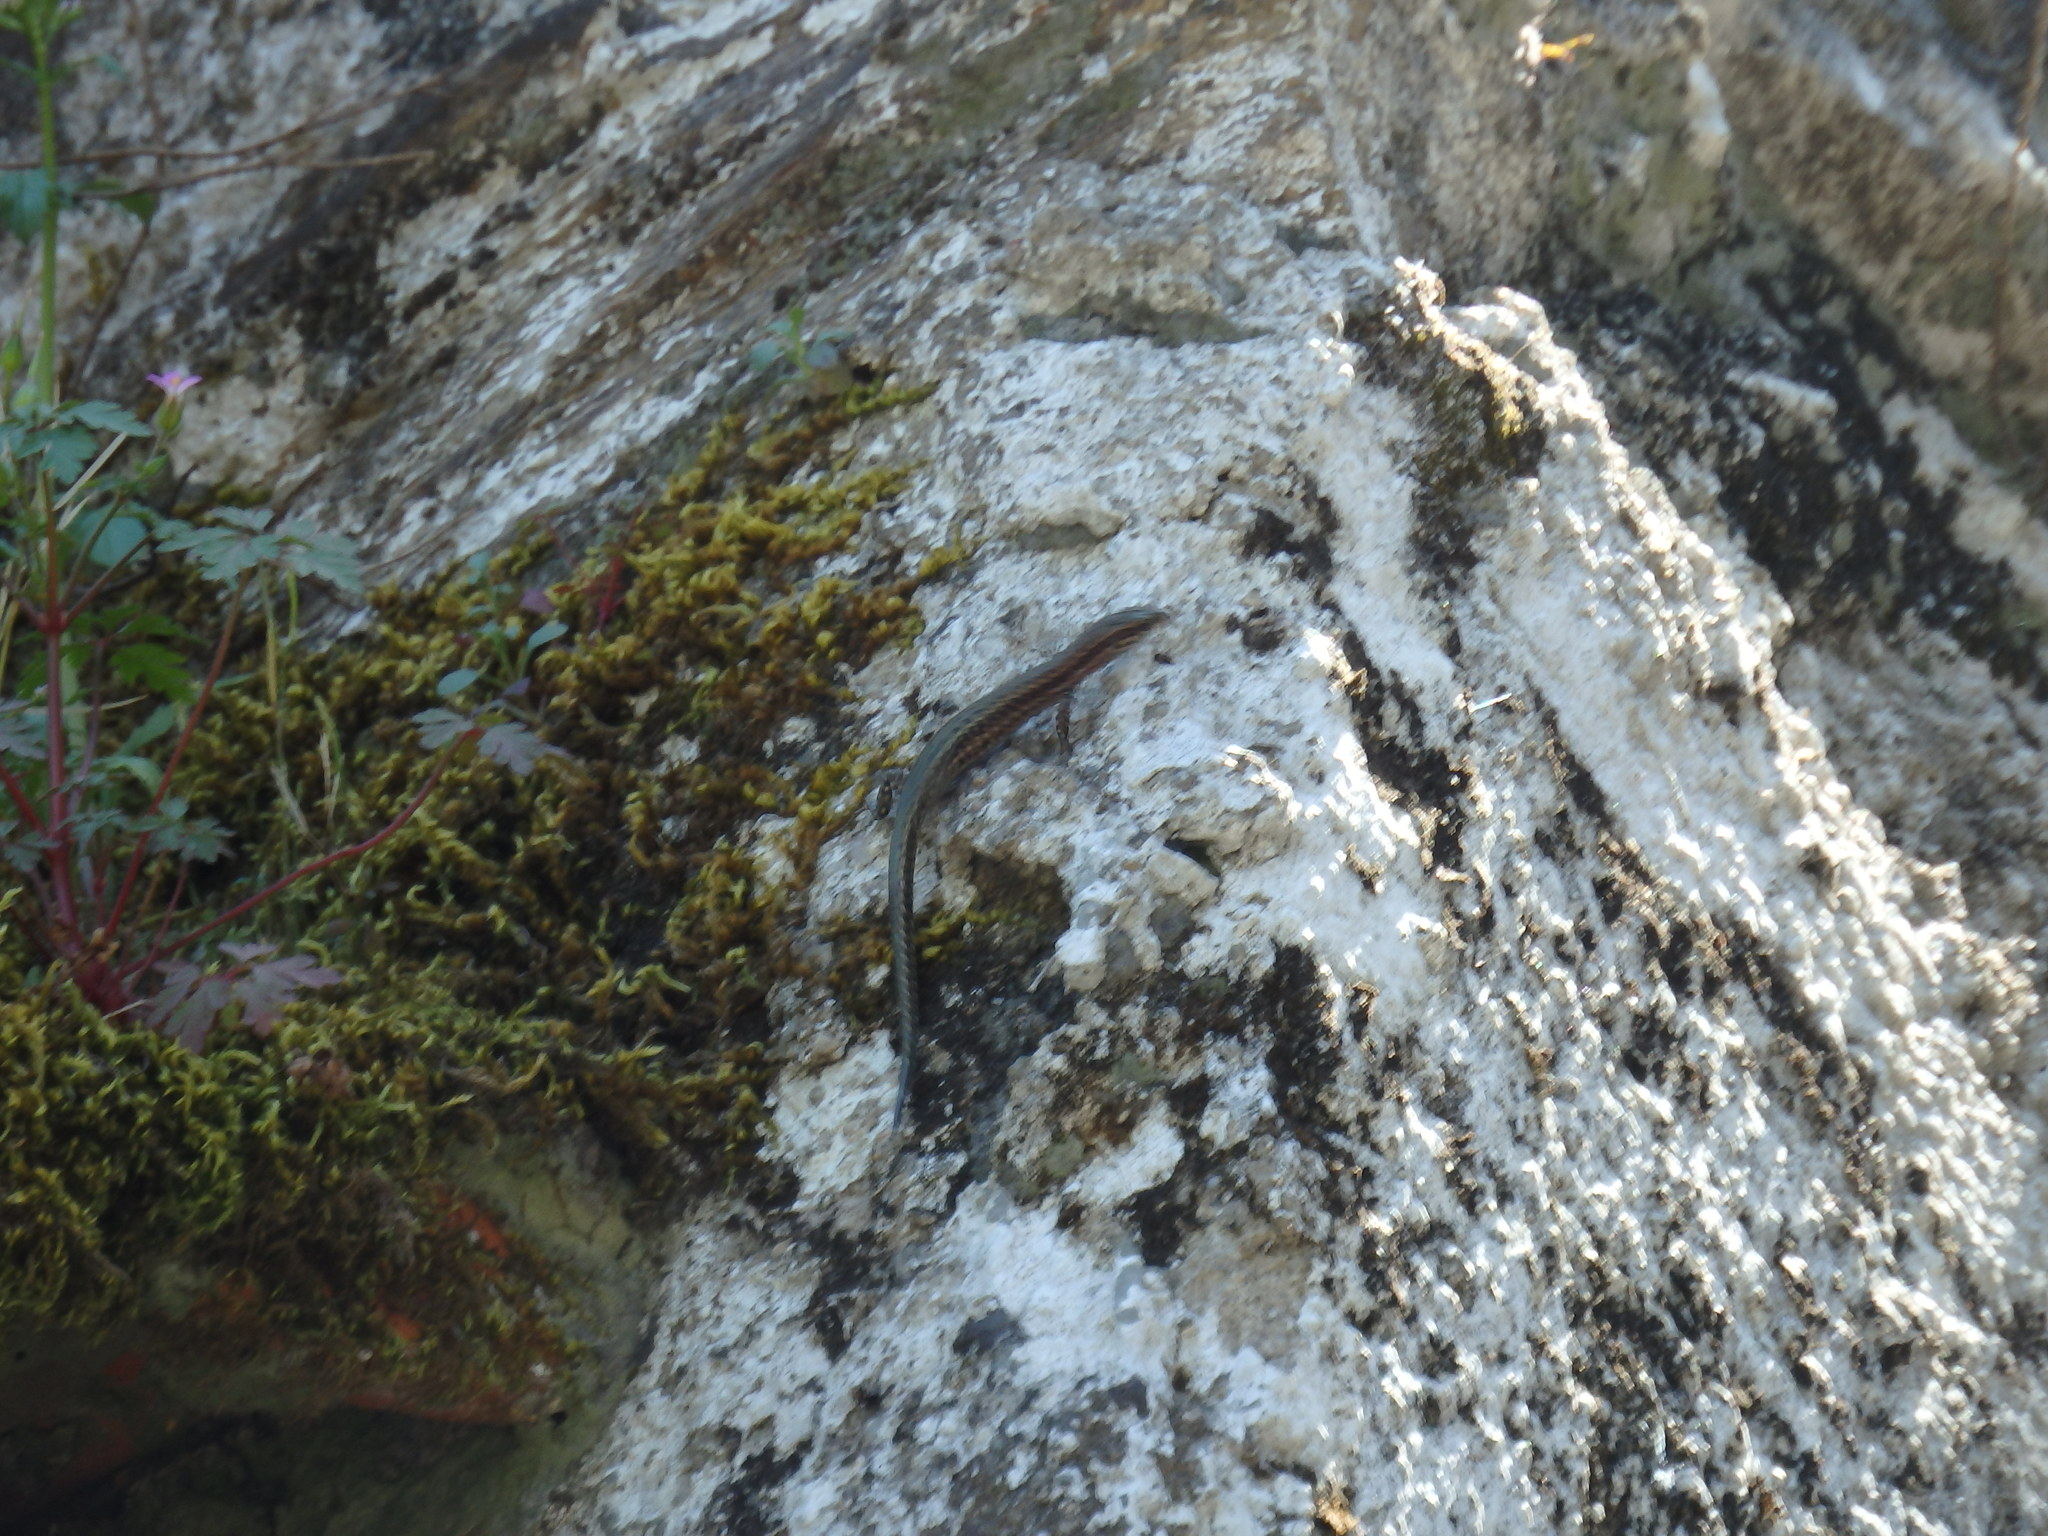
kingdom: Animalia
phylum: Chordata
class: Squamata
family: Lacertidae
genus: Podarcis
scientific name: Podarcis virescens
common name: Geniez’s wall lizard
